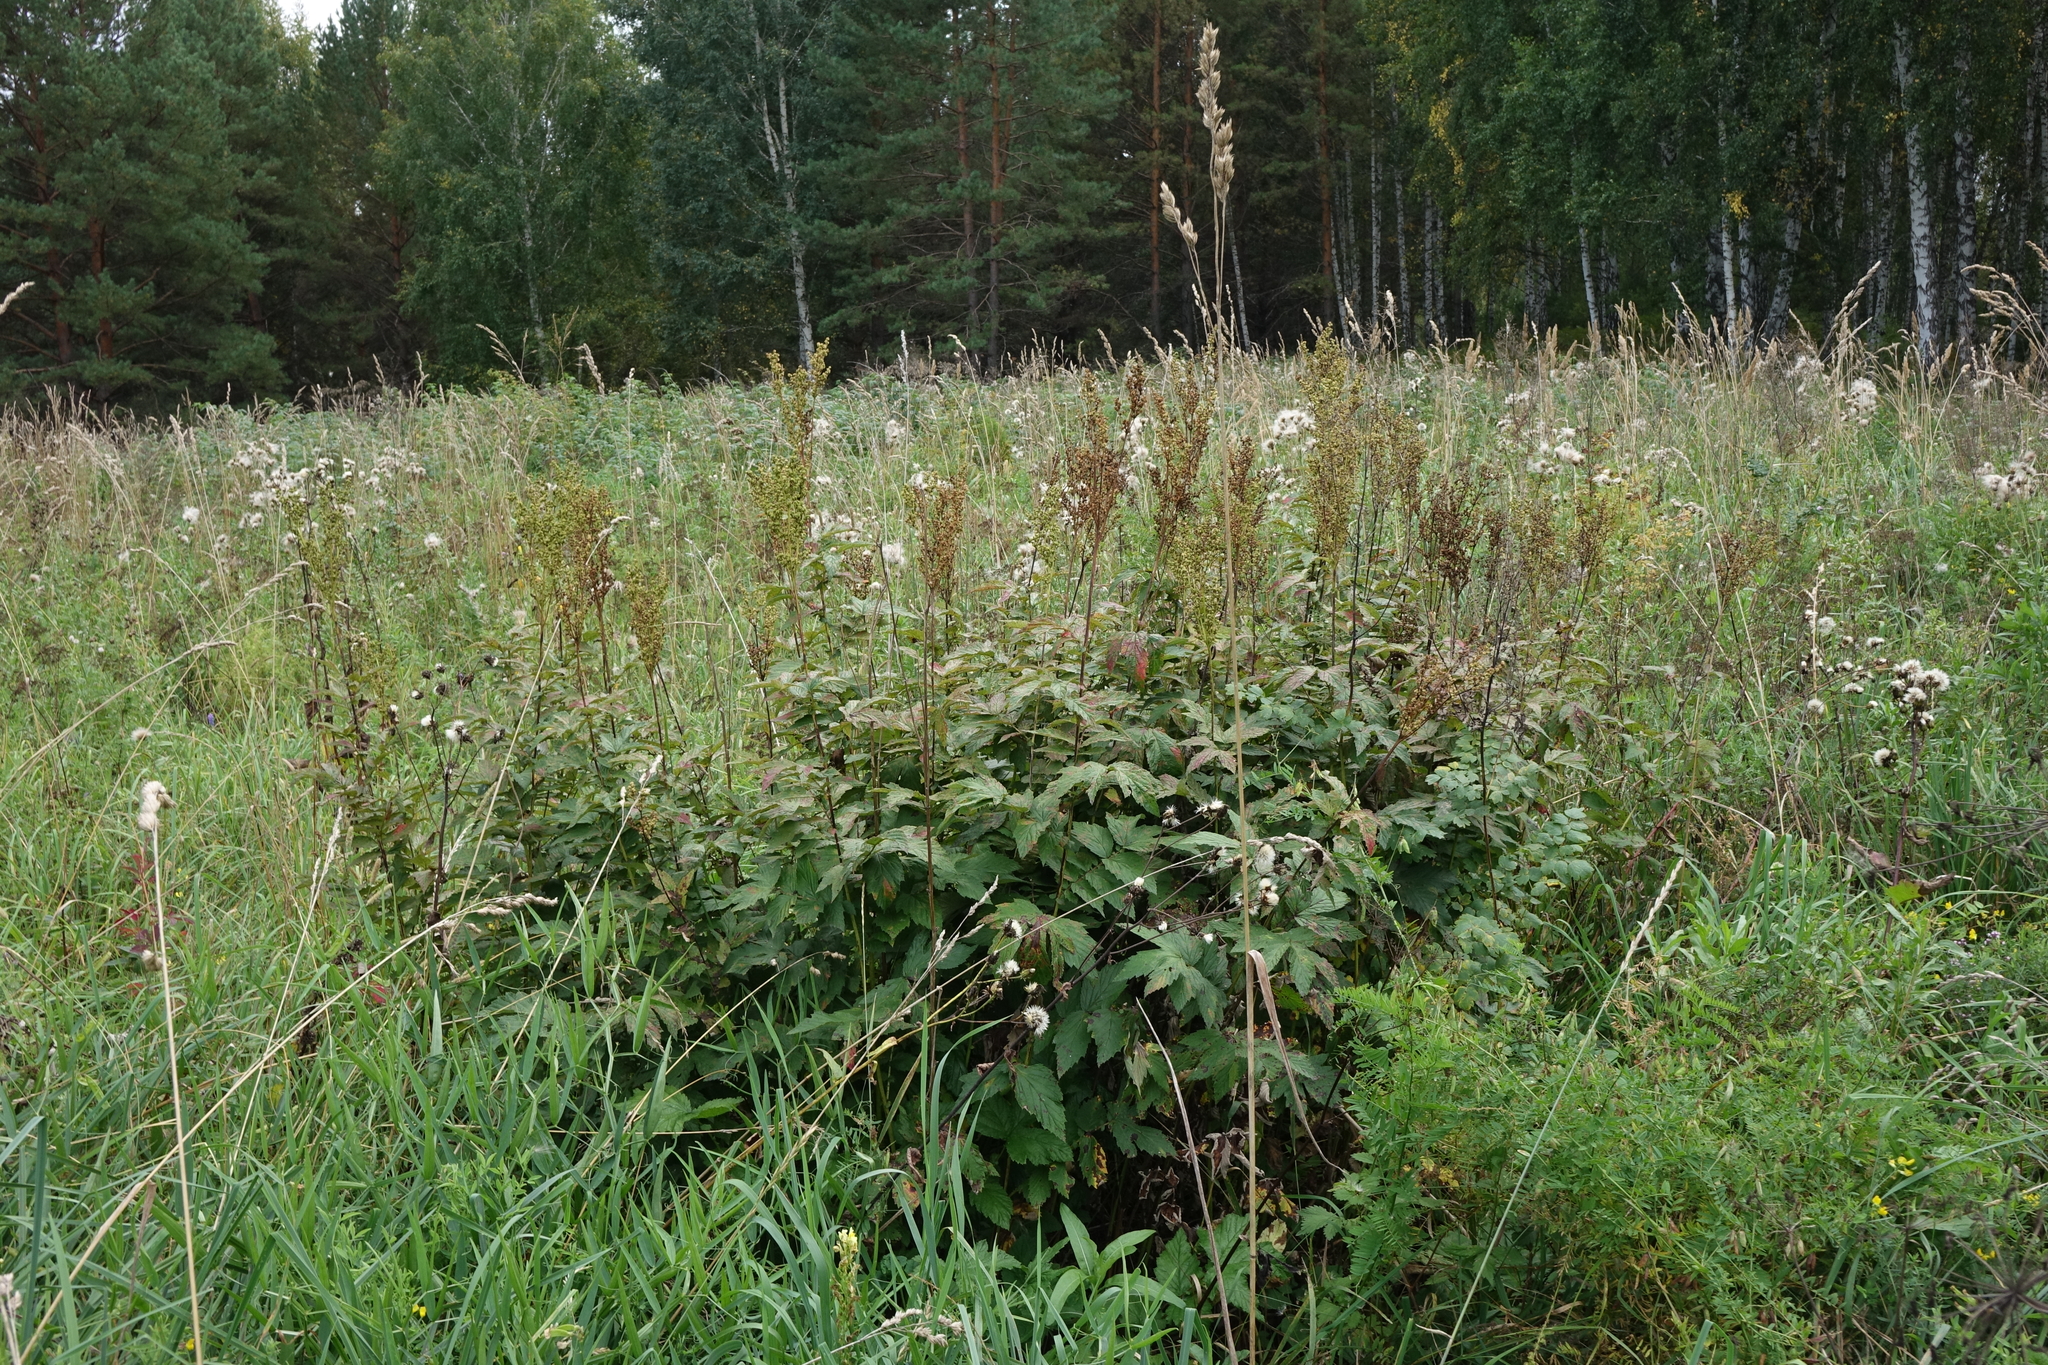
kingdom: Plantae
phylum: Tracheophyta
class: Magnoliopsida
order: Rosales
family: Rosaceae
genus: Filipendula
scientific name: Filipendula ulmaria
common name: Meadowsweet
